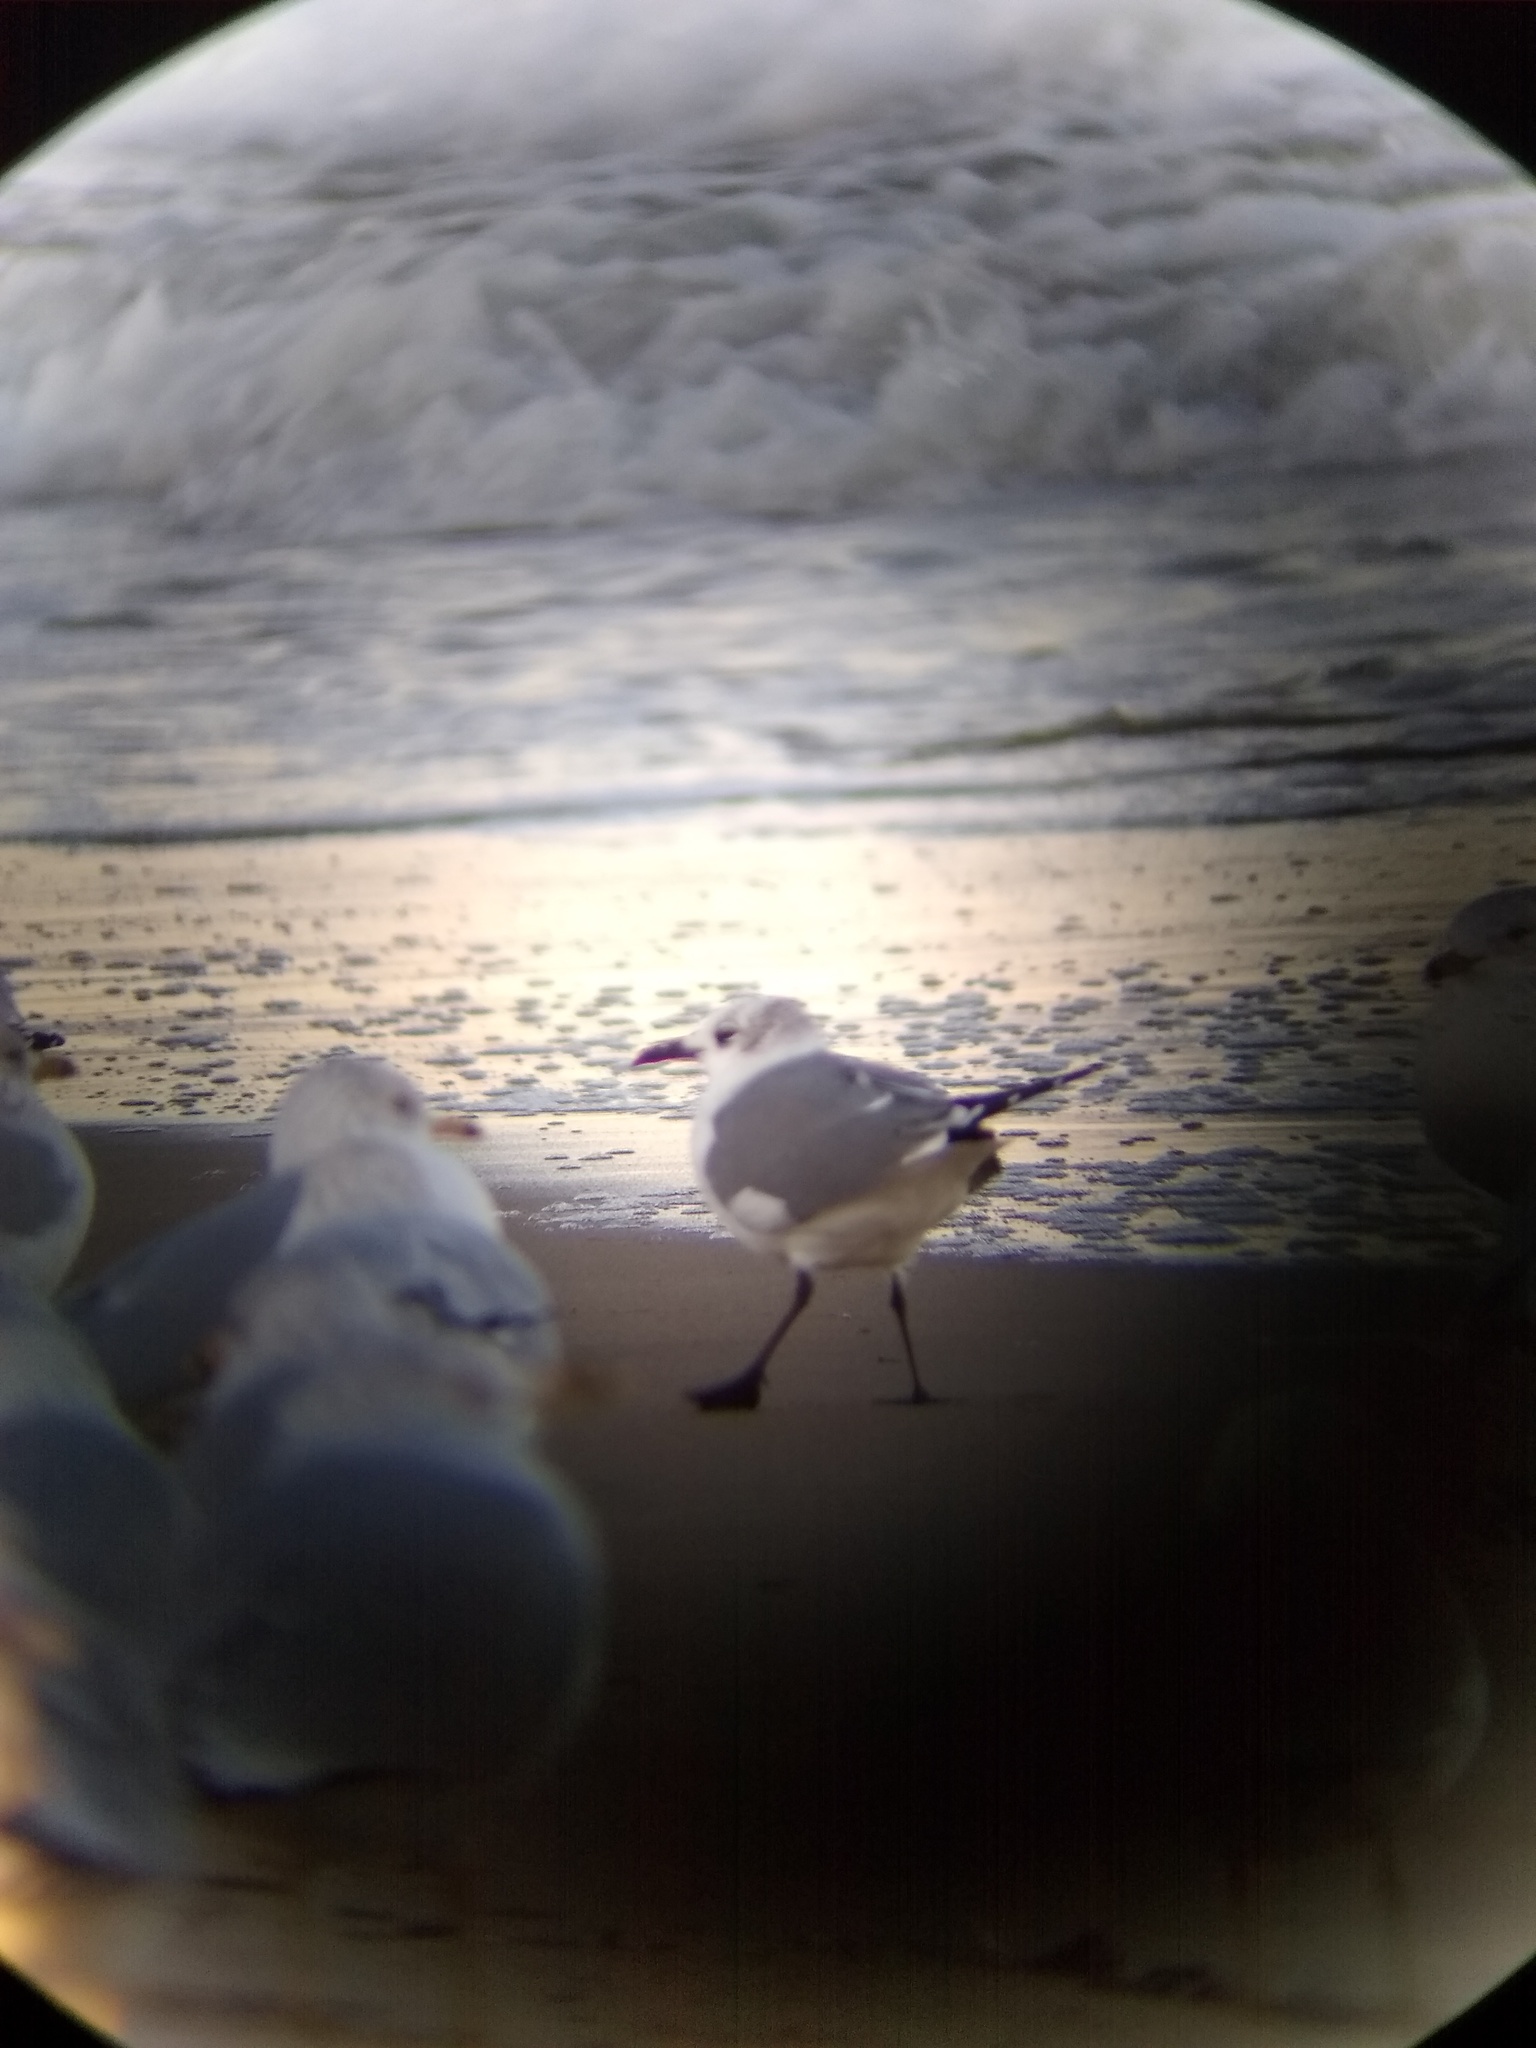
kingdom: Animalia
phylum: Chordata
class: Aves
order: Charadriiformes
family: Laridae
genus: Leucophaeus
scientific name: Leucophaeus atricilla
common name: Laughing gull
